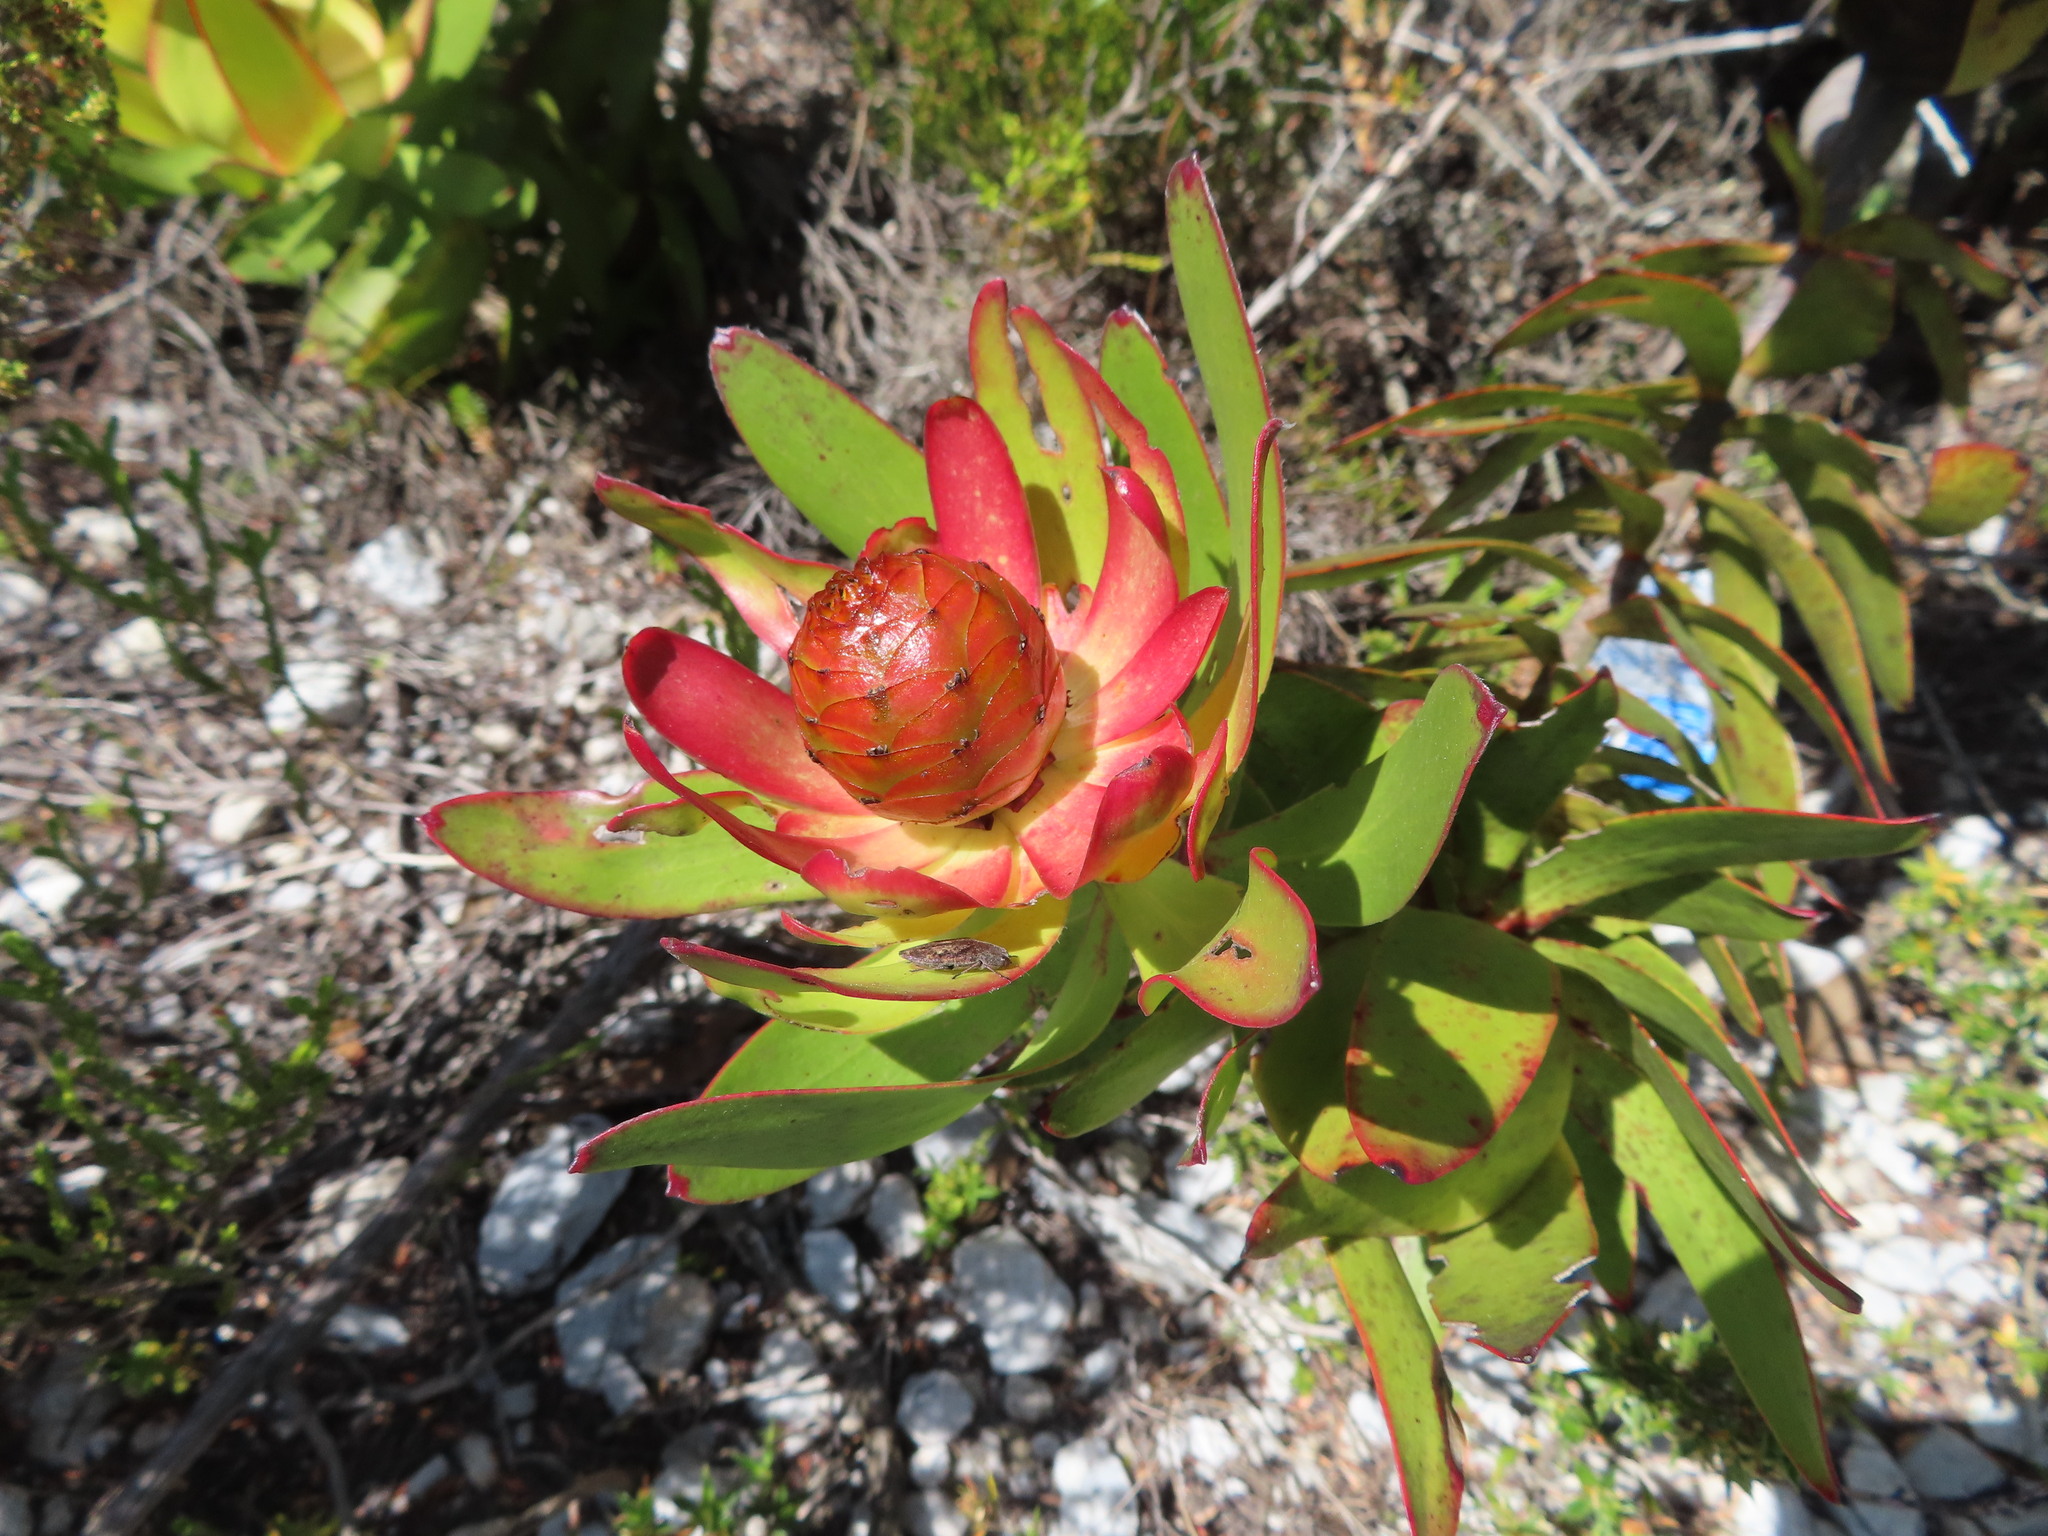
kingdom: Plantae
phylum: Tracheophyta
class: Magnoliopsida
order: Proteales
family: Proteaceae
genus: Leucadendron
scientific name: Leucadendron gandogeri
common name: Broad-leaf conebush
